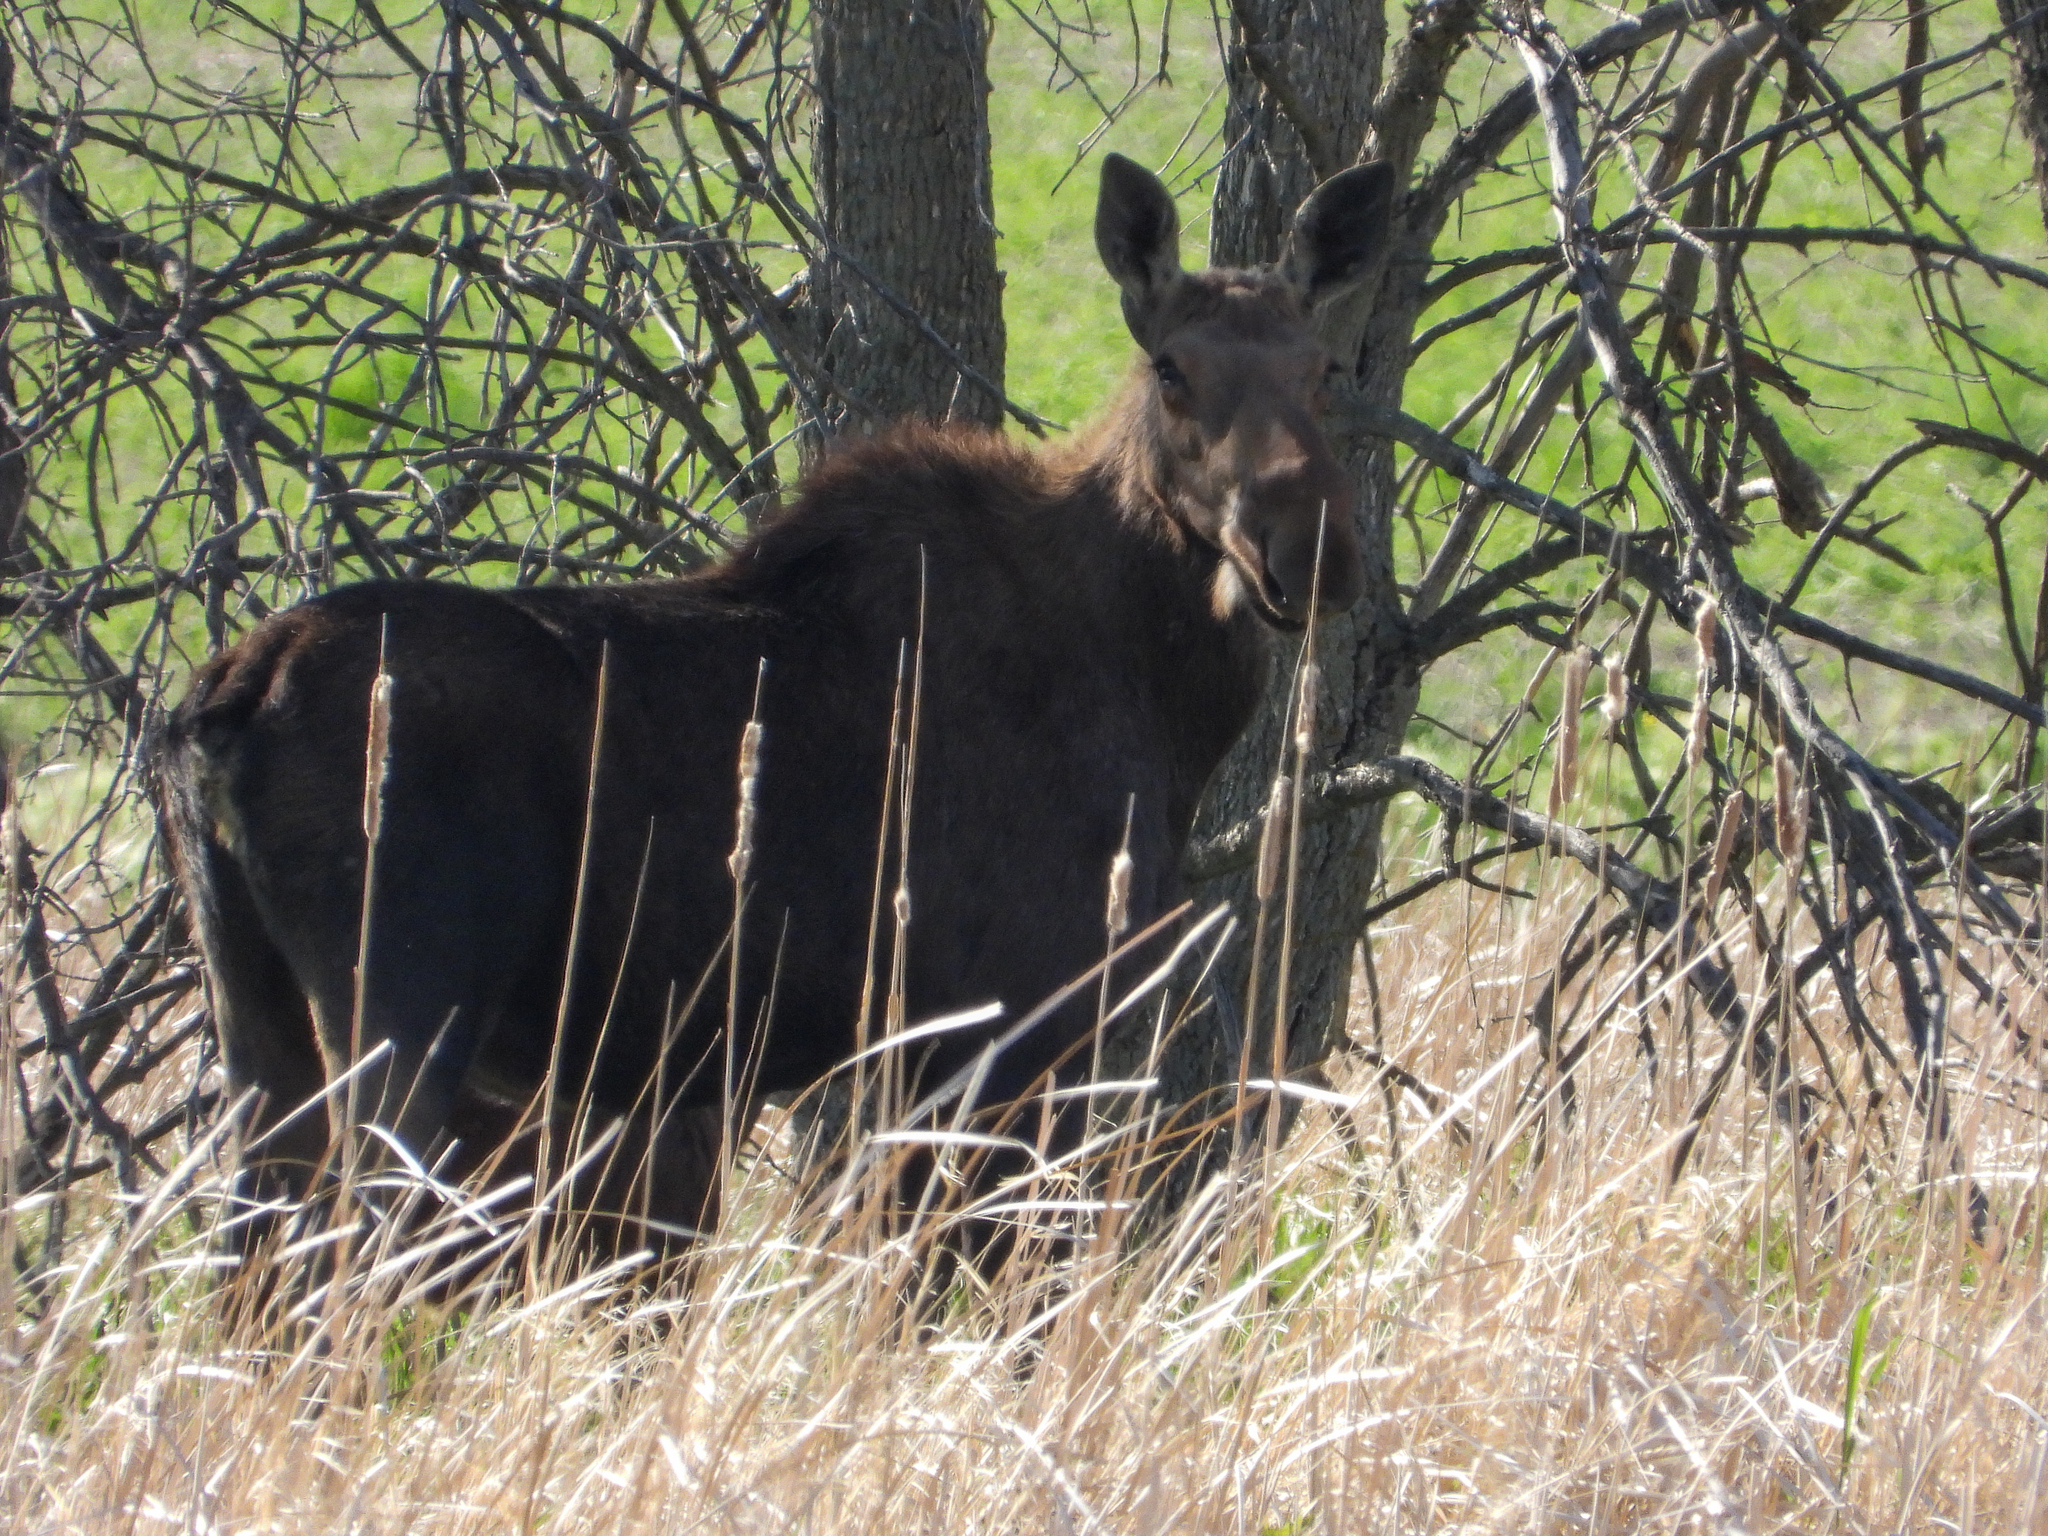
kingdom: Animalia
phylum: Chordata
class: Mammalia
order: Artiodactyla
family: Cervidae
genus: Alces
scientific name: Alces alces
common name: Moose
